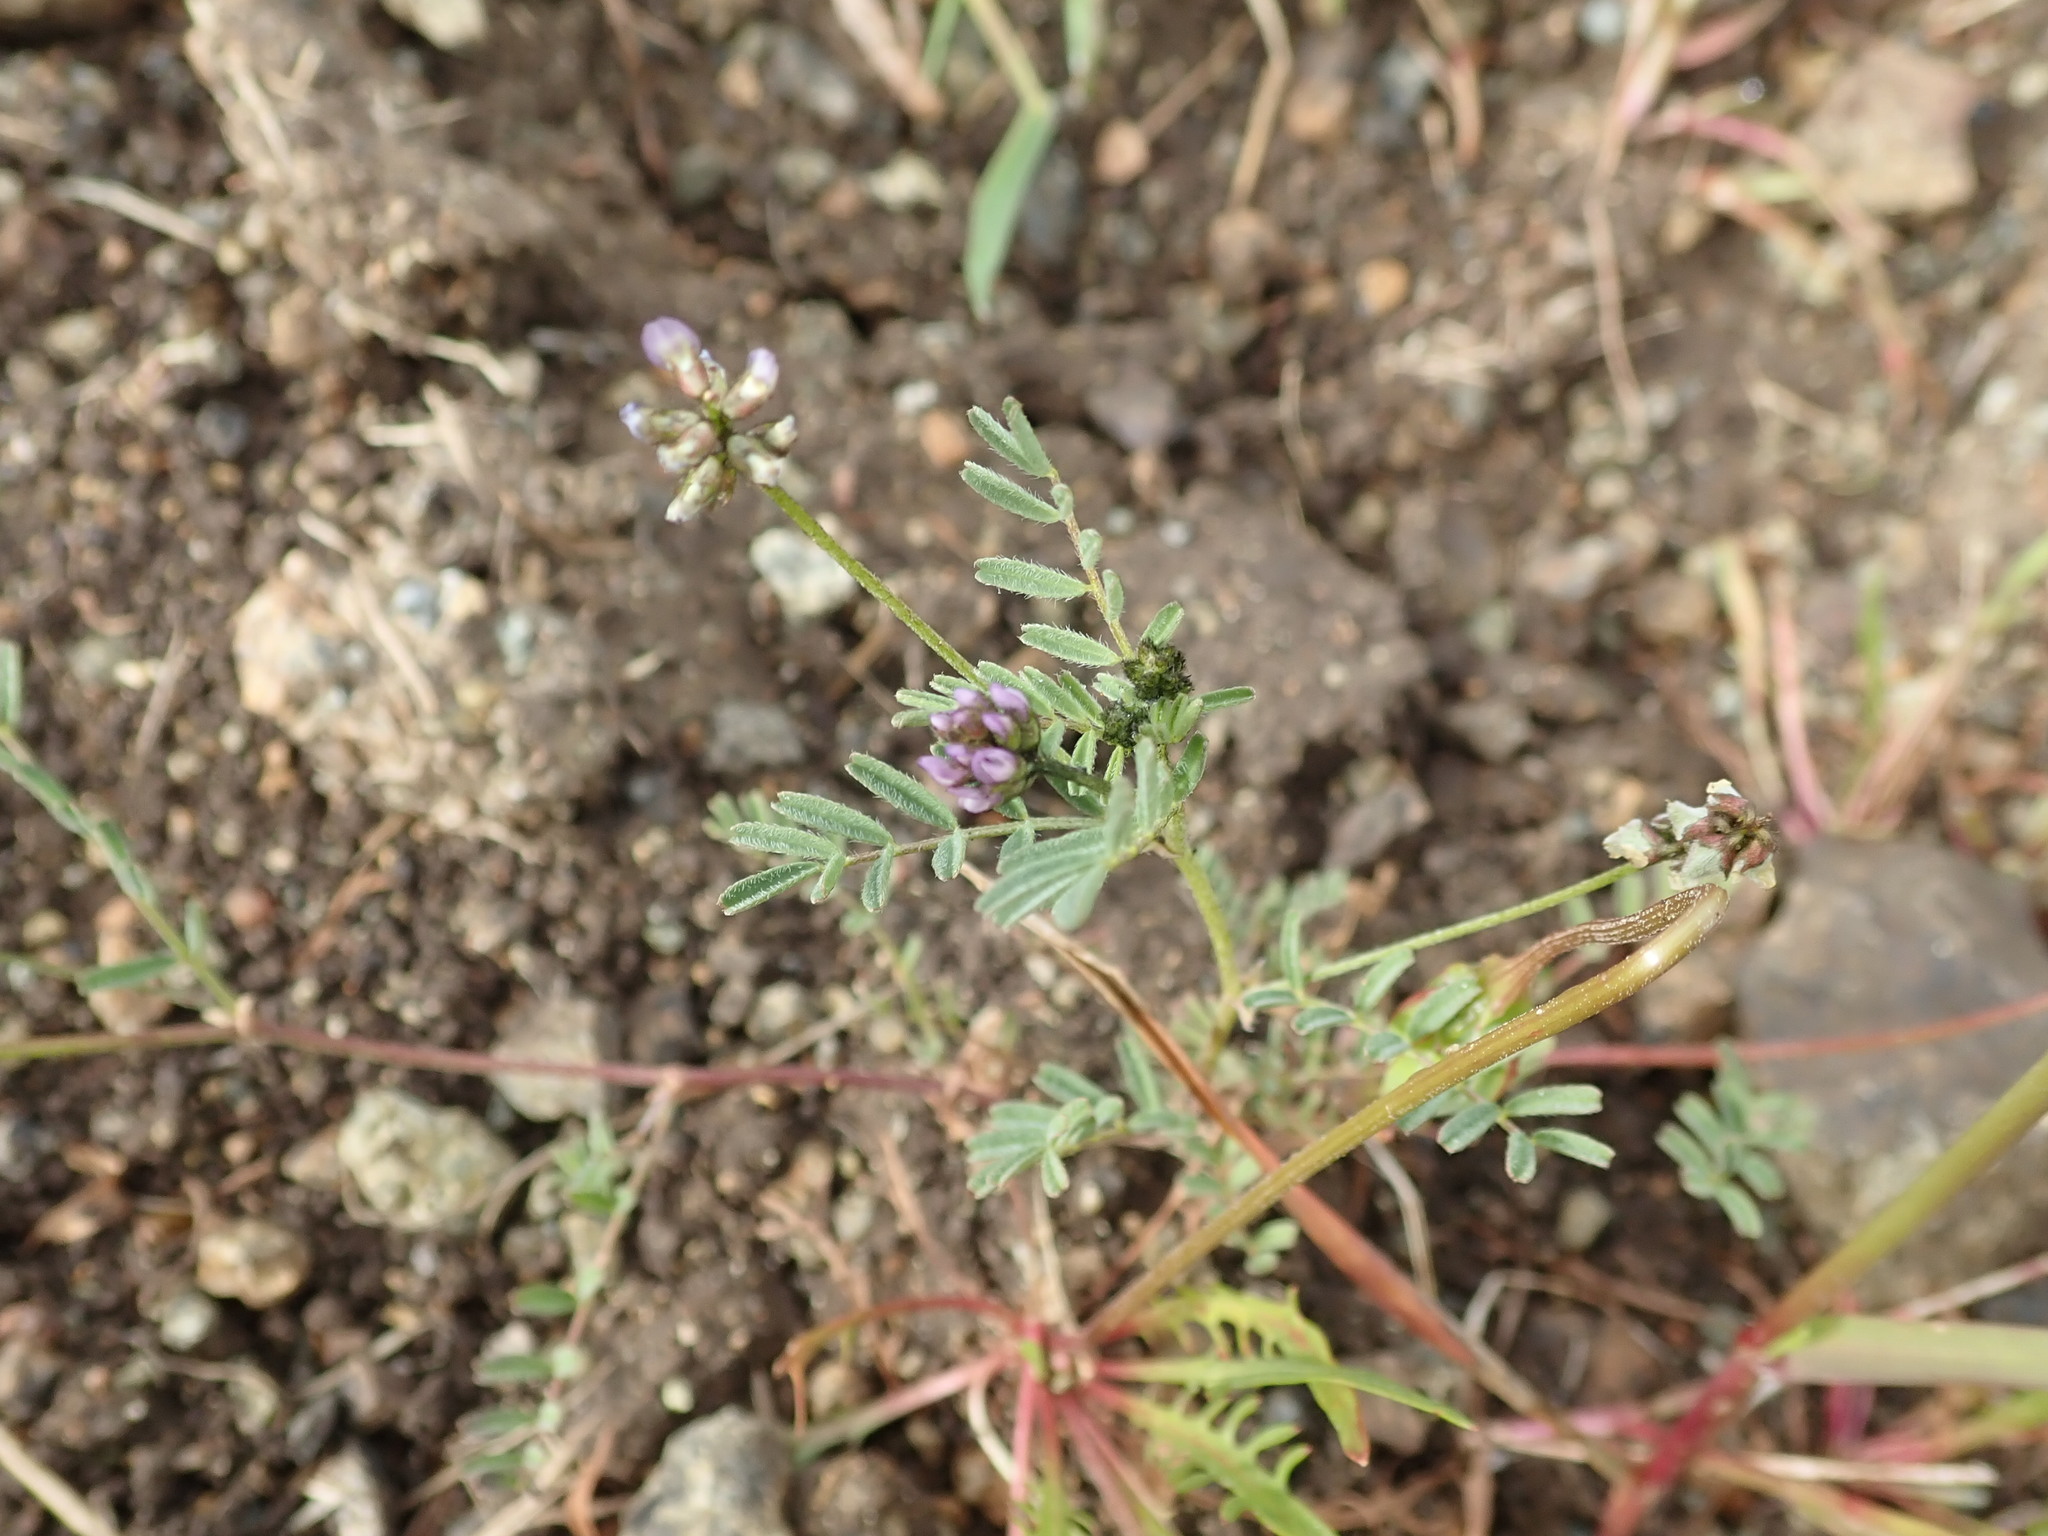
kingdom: Plantae
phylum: Tracheophyta
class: Magnoliopsida
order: Fabales
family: Fabaceae
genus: Astragalus
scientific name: Astragalus gambelianus
